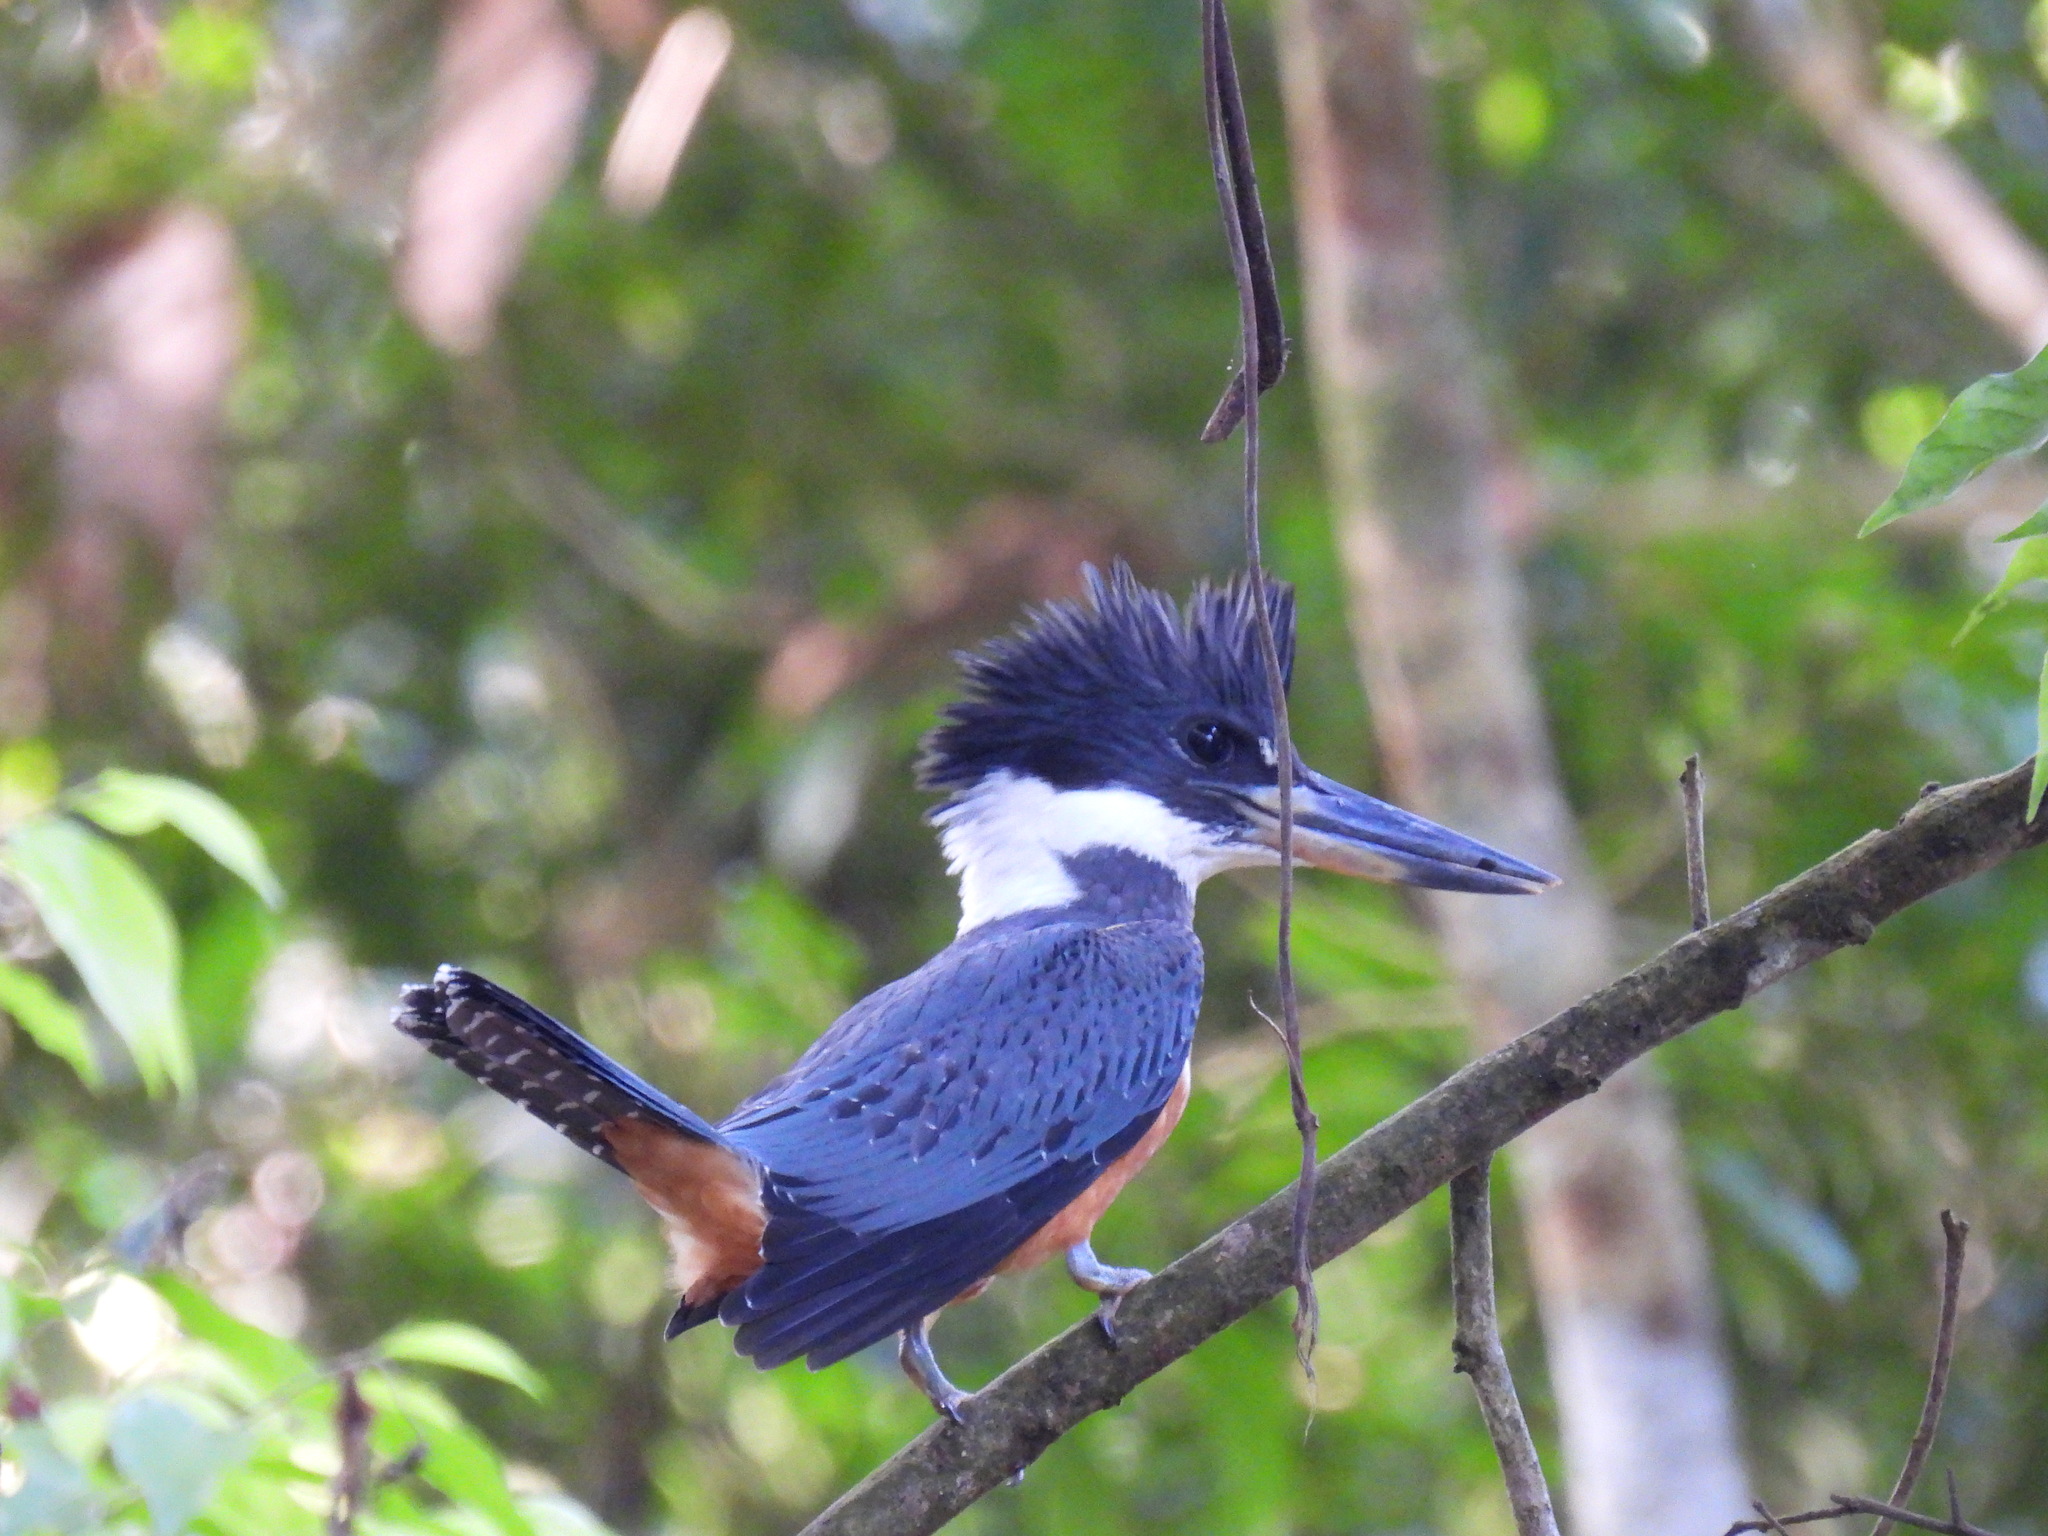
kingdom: Animalia
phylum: Chordata
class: Aves
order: Coraciiformes
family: Alcedinidae
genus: Megaceryle
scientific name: Megaceryle torquata
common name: Ringed kingfisher
